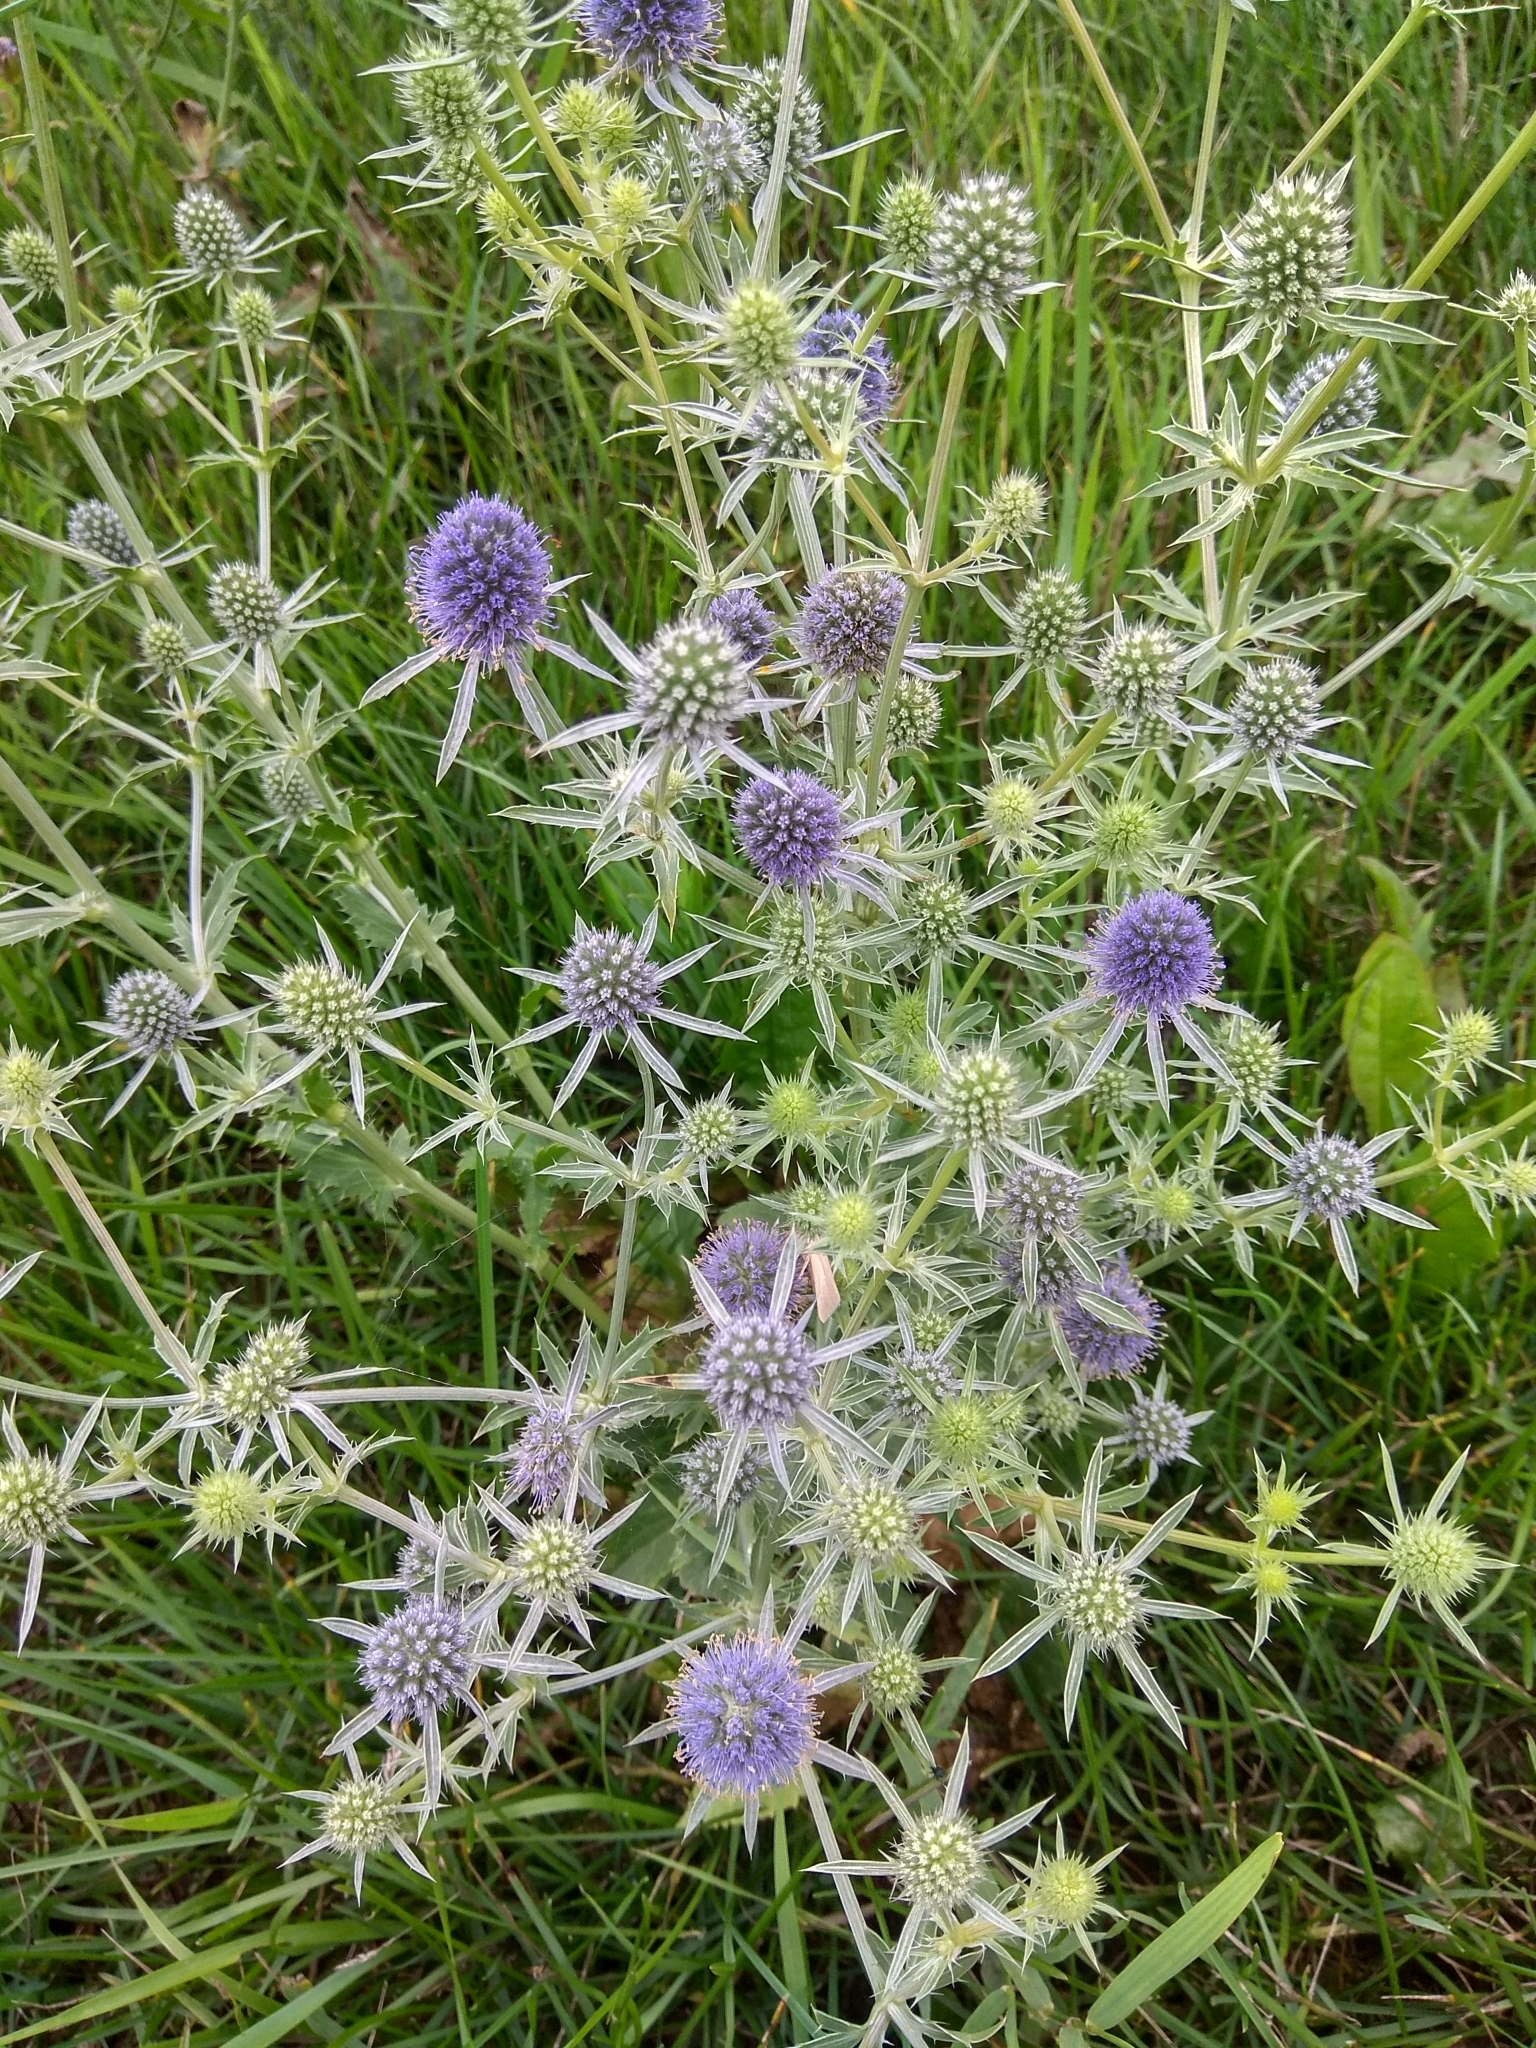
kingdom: Plantae
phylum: Tracheophyta
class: Magnoliopsida
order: Apiales
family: Apiaceae
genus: Eryngium
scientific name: Eryngium planum
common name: Blue eryngo
